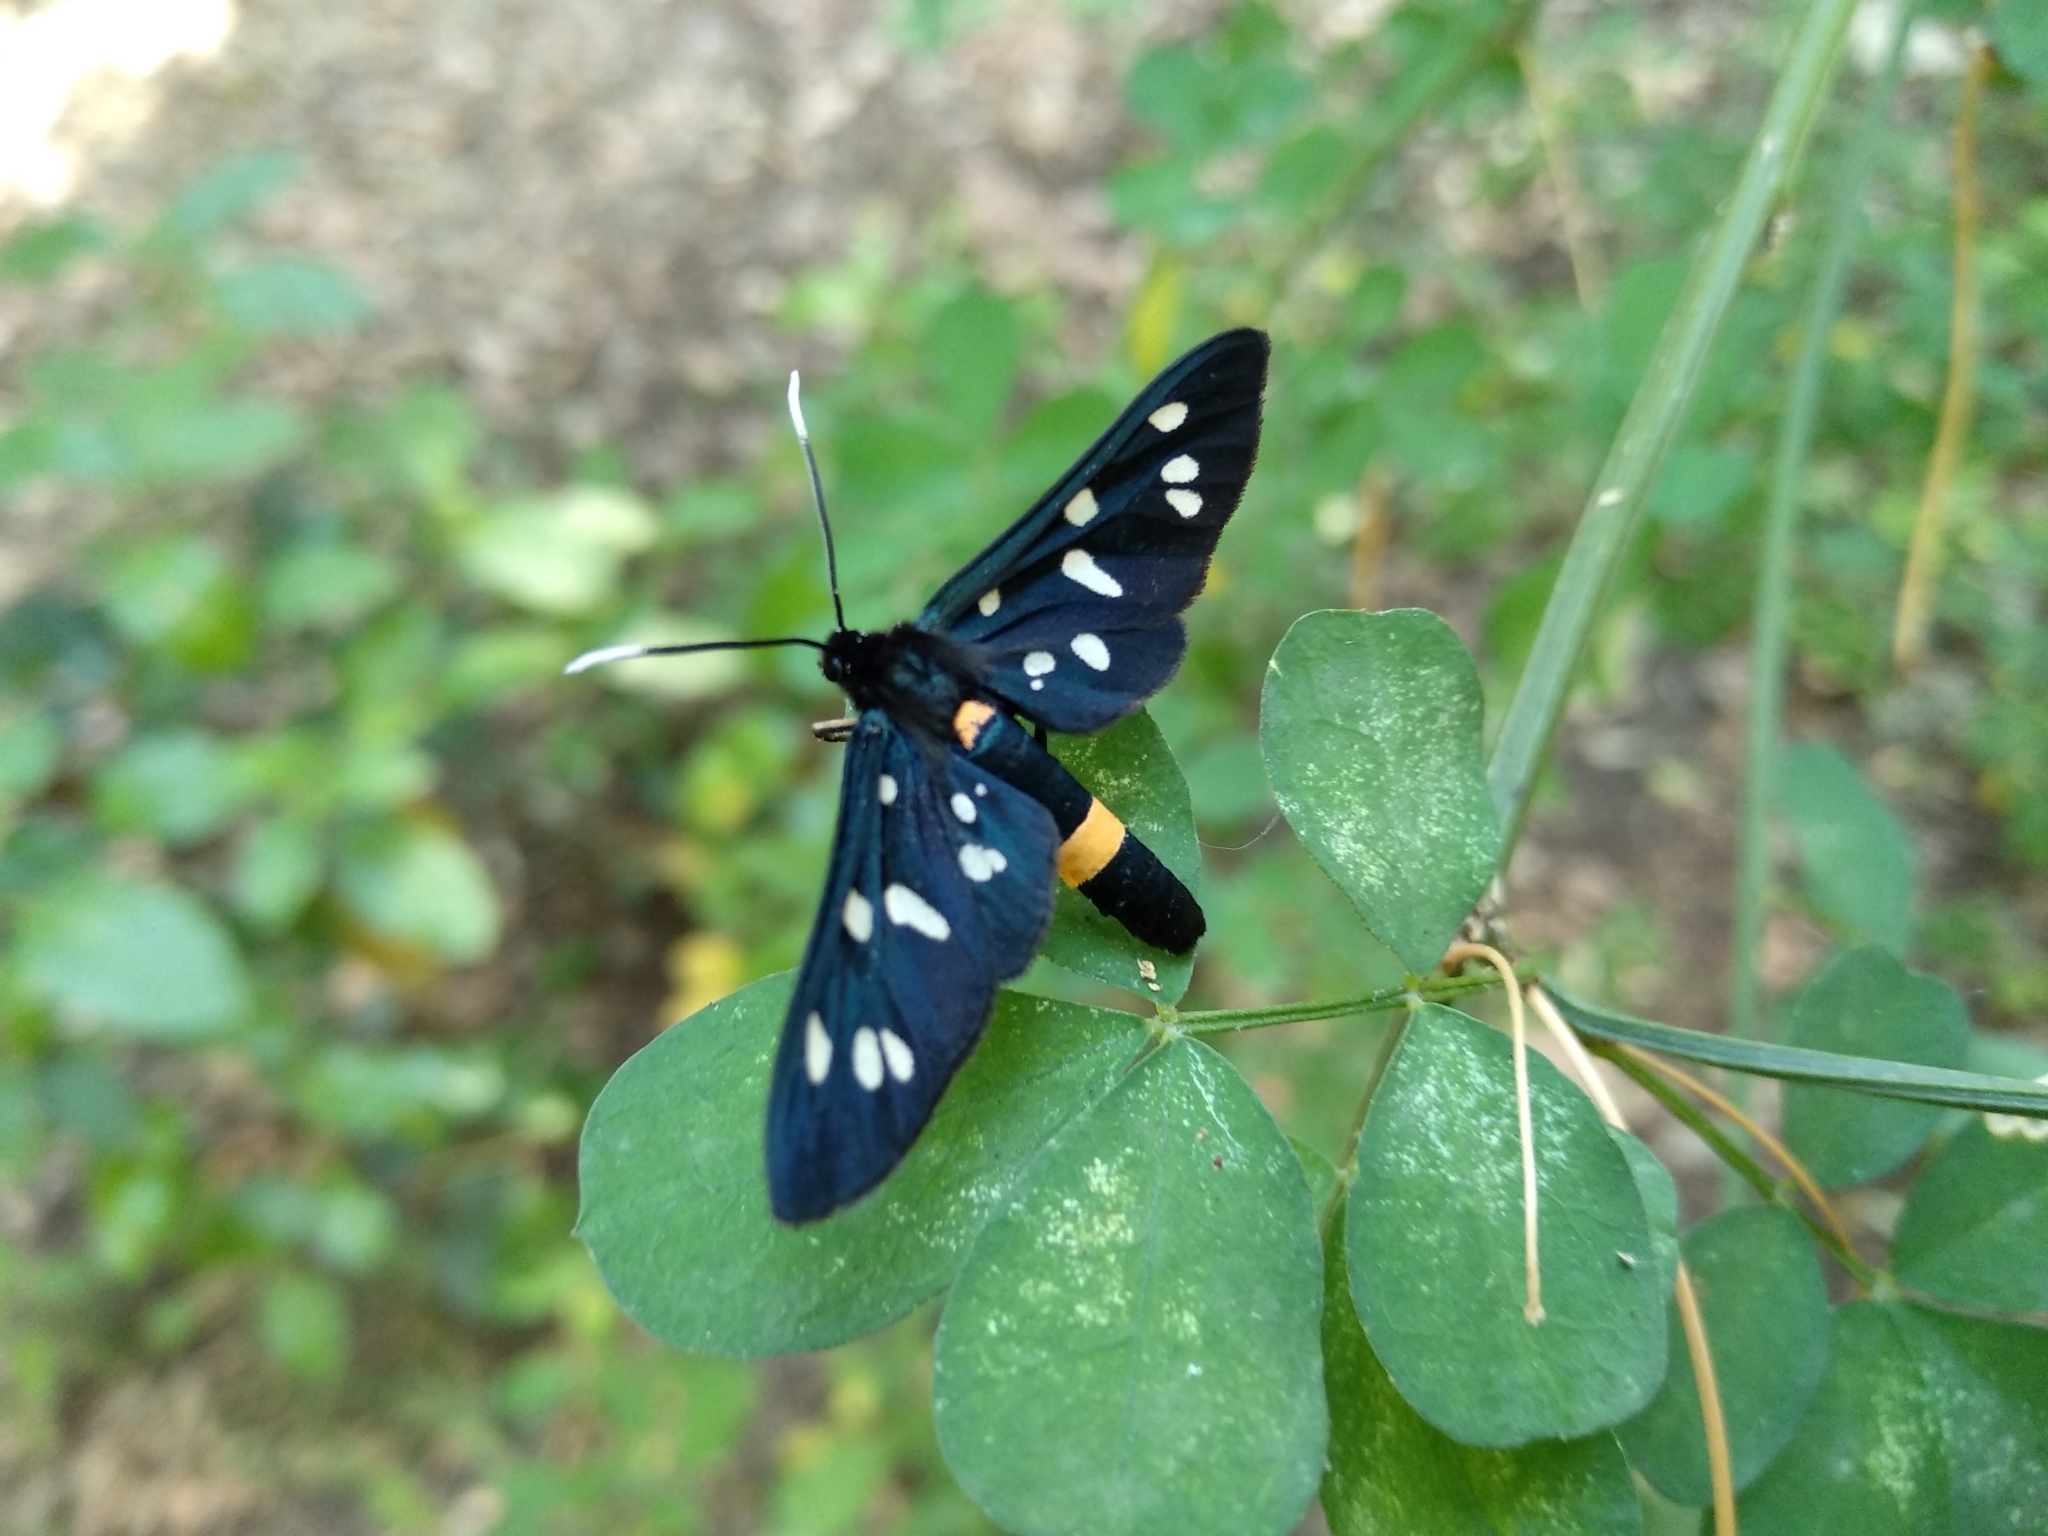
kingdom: Animalia
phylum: Arthropoda
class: Insecta
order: Lepidoptera
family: Erebidae
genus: Amata
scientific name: Amata phegea
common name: Nine-spotted
